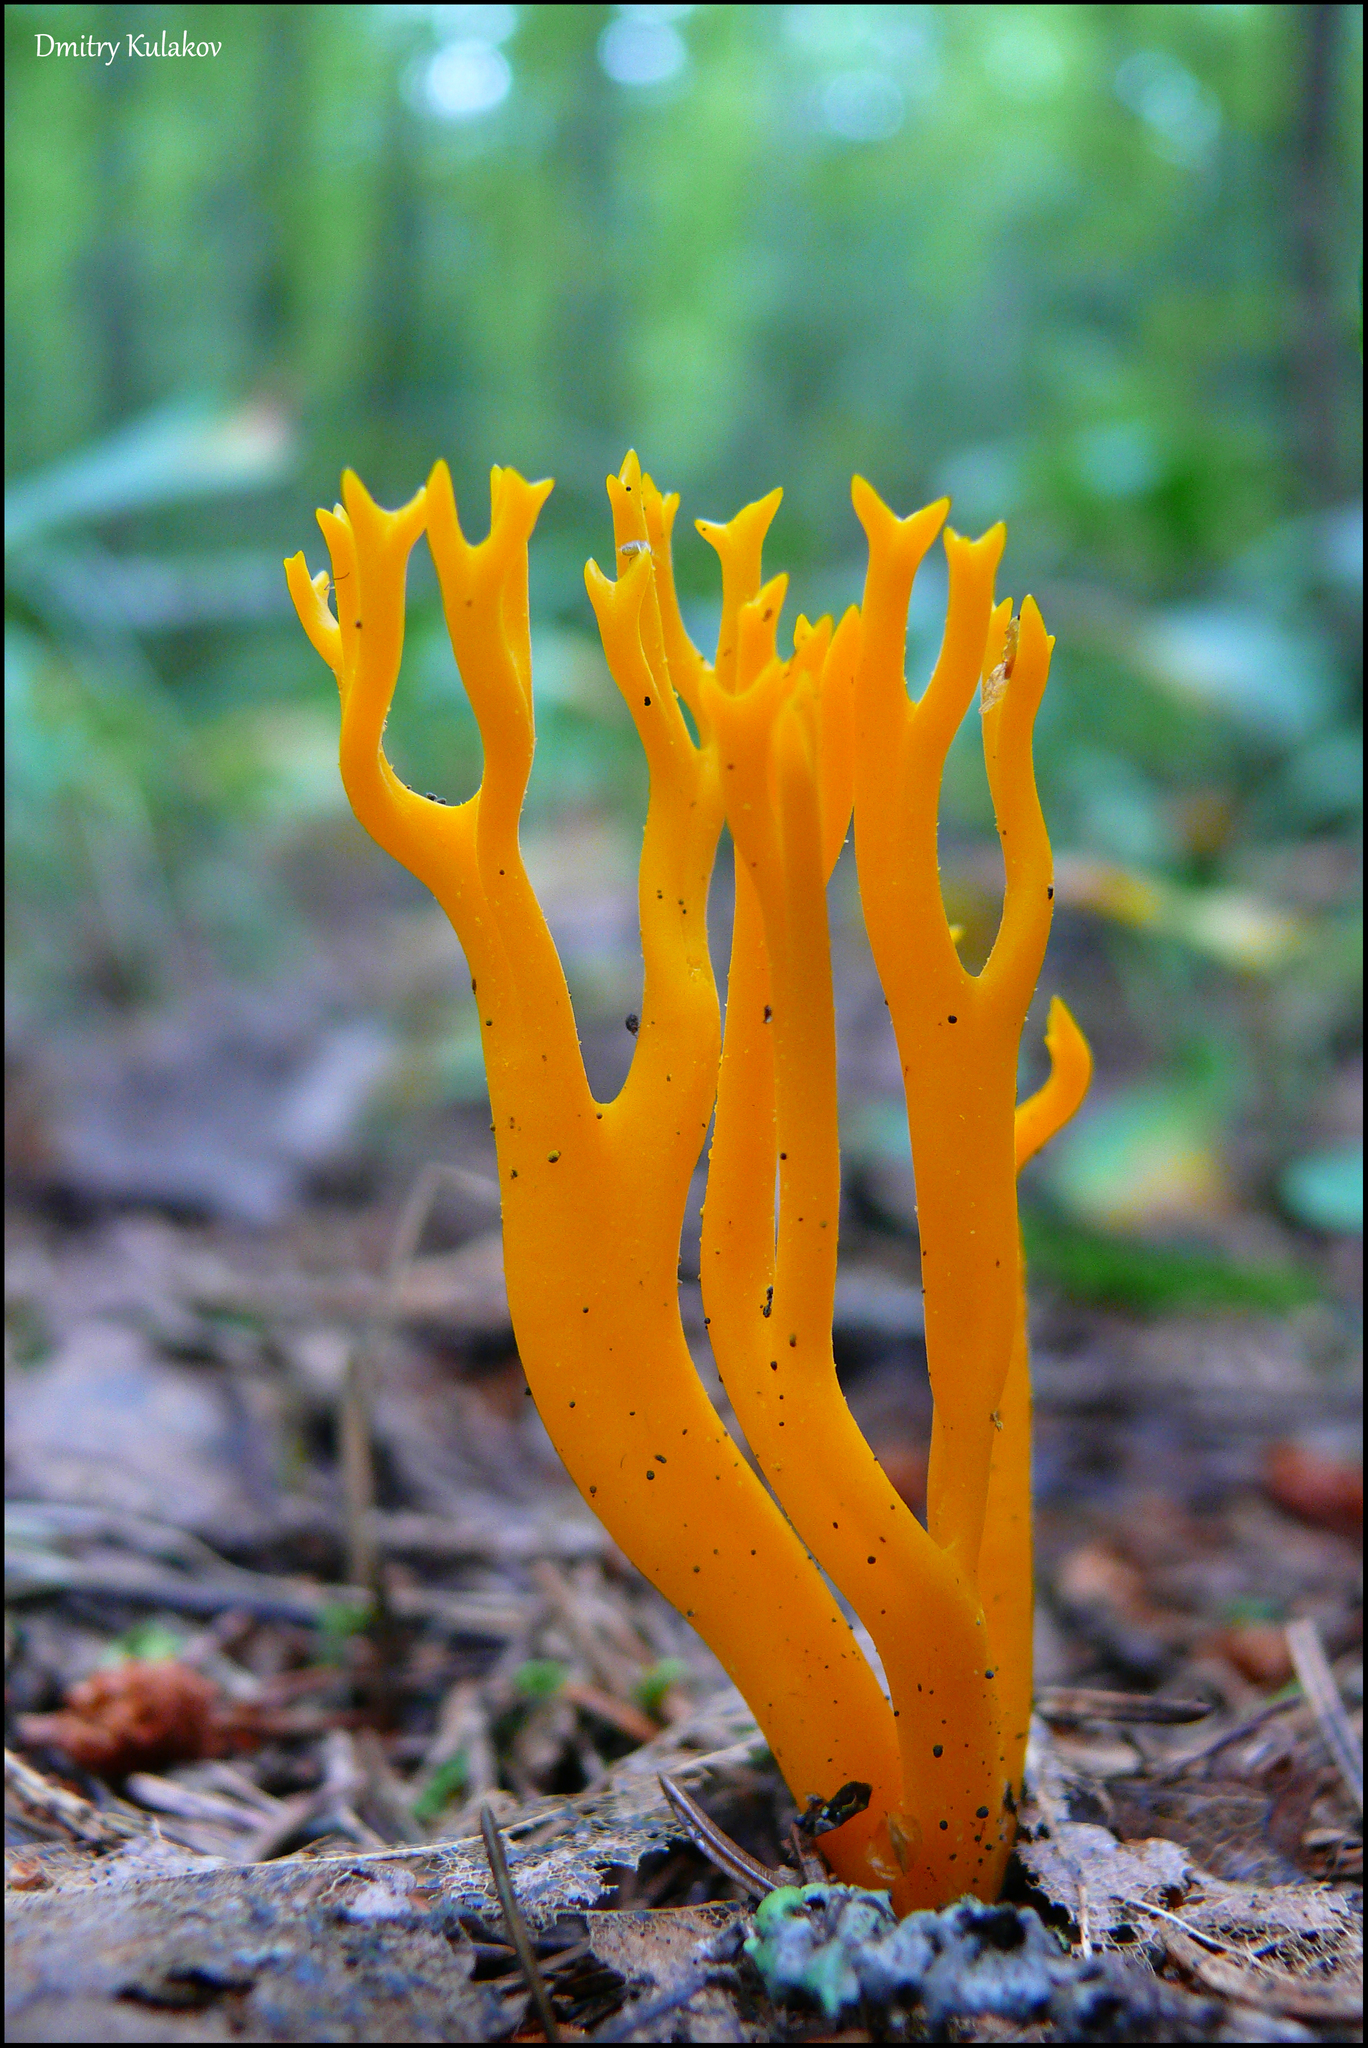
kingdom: Fungi
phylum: Basidiomycota
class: Dacrymycetes
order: Dacrymycetales
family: Dacrymycetaceae
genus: Calocera
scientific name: Calocera viscosa
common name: Yellow stagshorn
